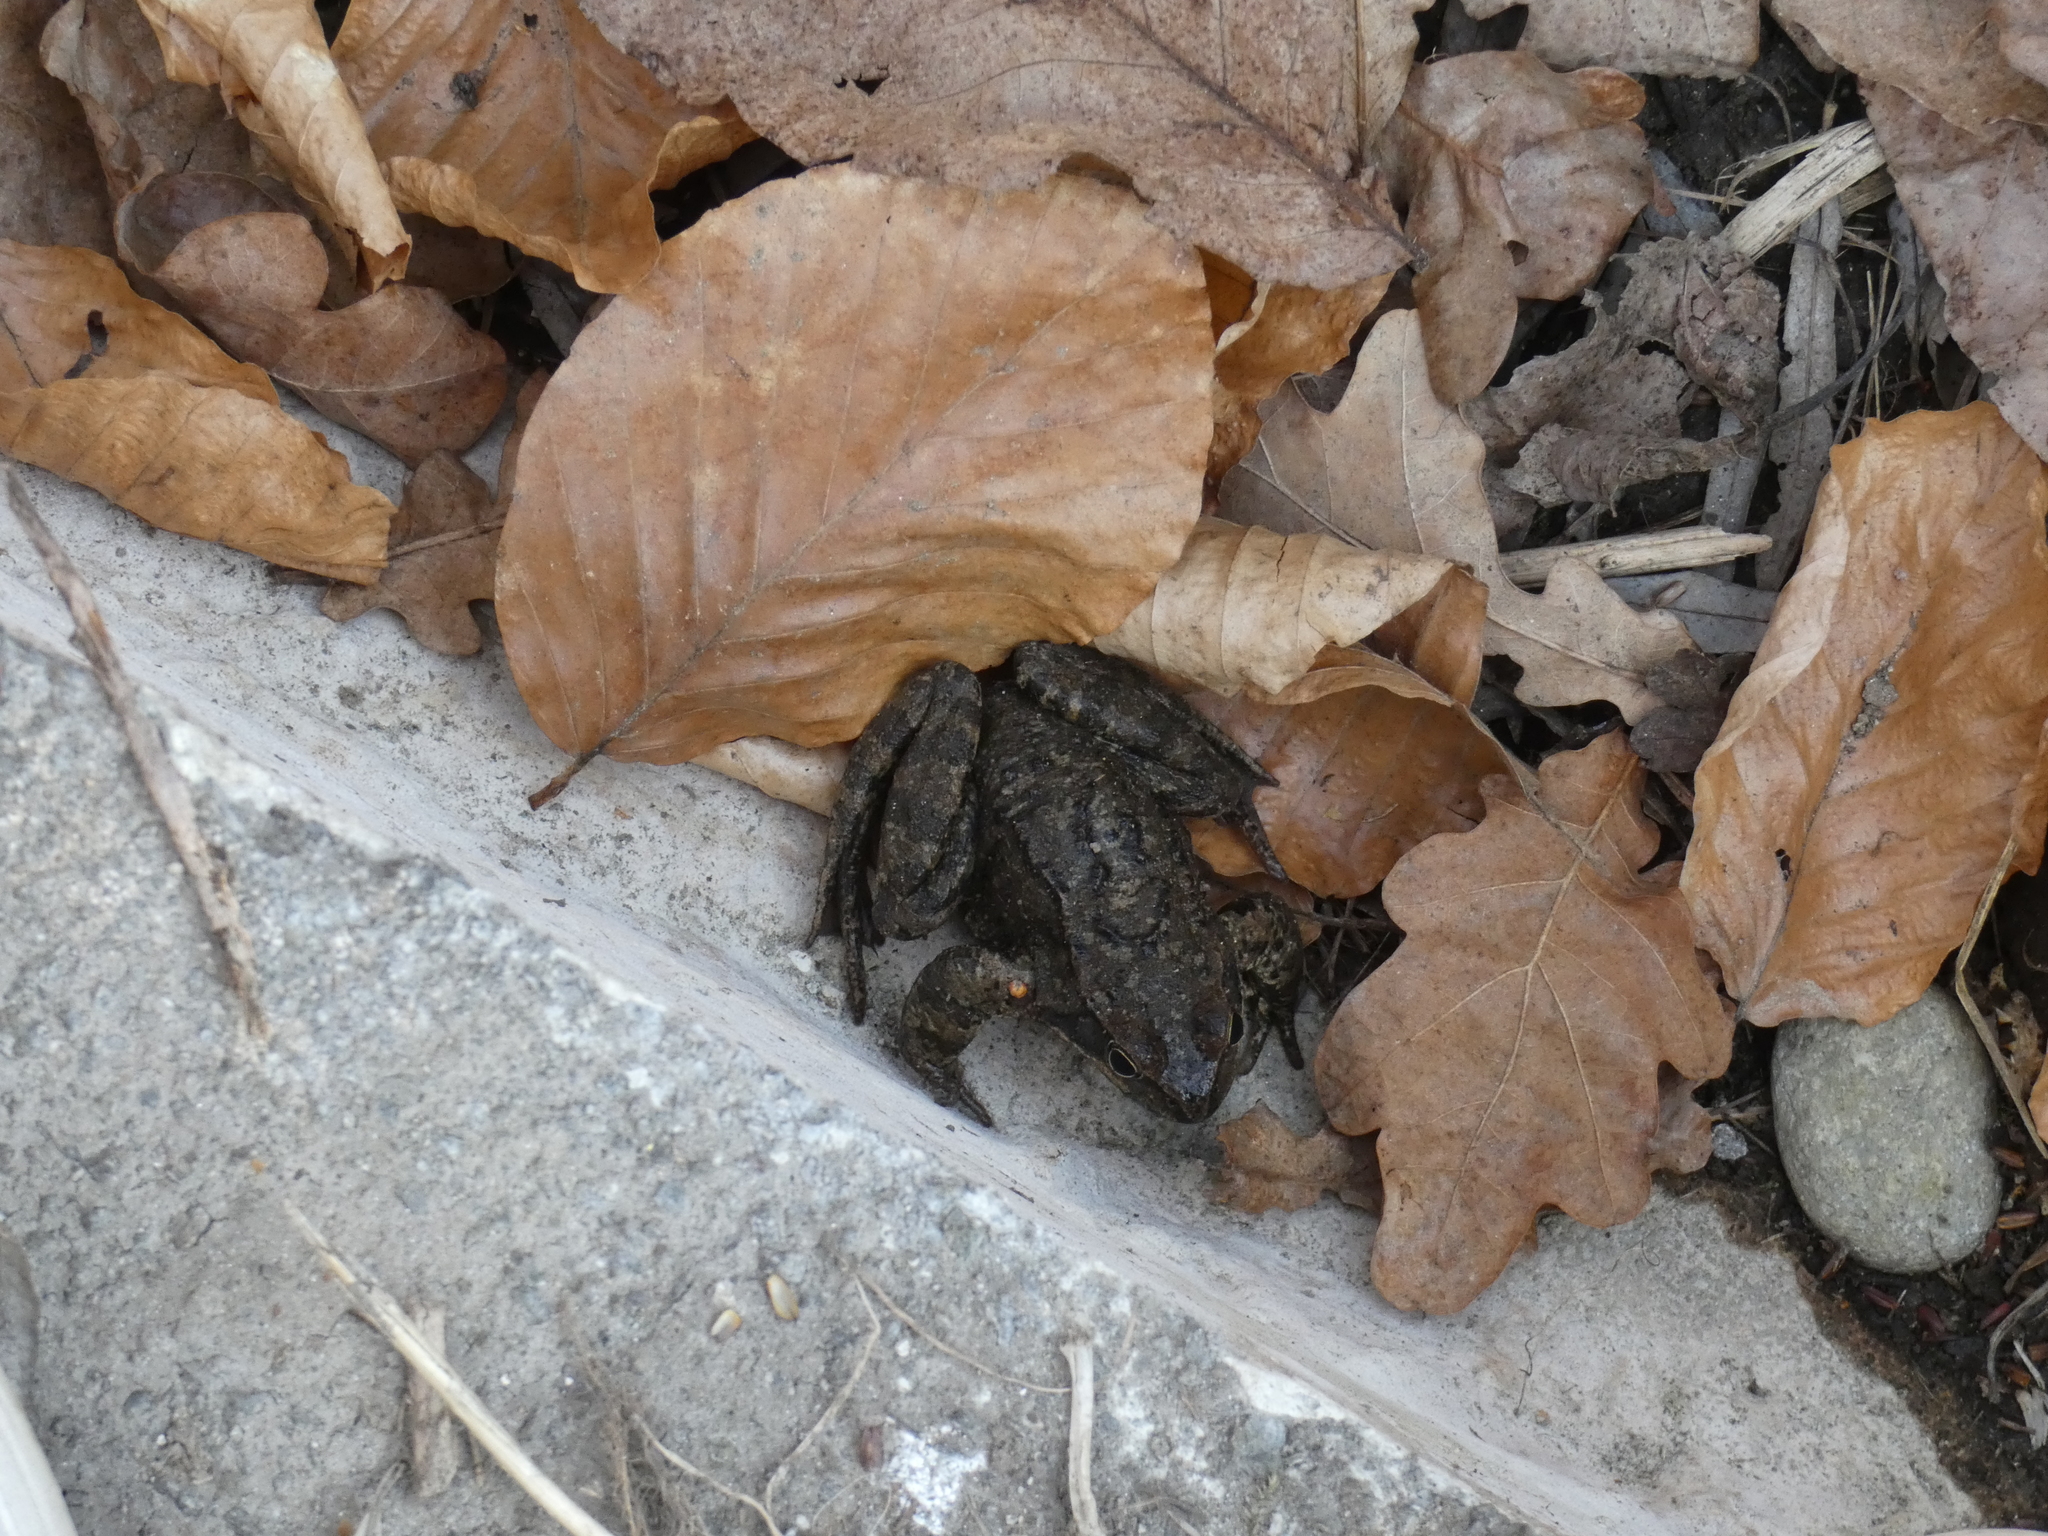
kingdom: Animalia
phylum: Chordata
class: Amphibia
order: Anura
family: Ranidae
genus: Rana
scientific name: Rana temporaria
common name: Common frog
